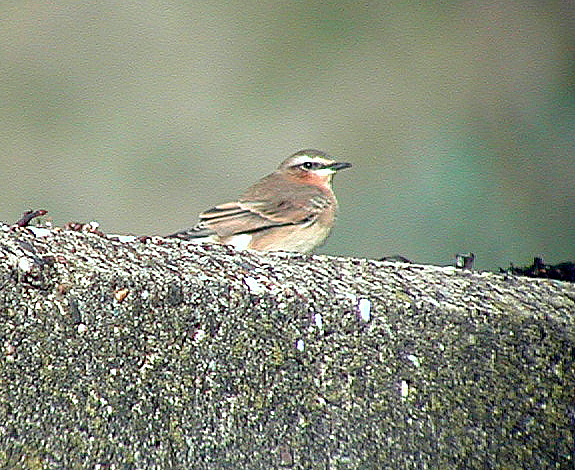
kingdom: Animalia
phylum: Chordata
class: Aves
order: Passeriformes
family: Muscicapidae
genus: Oenanthe
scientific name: Oenanthe oenanthe
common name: Northern wheatear
